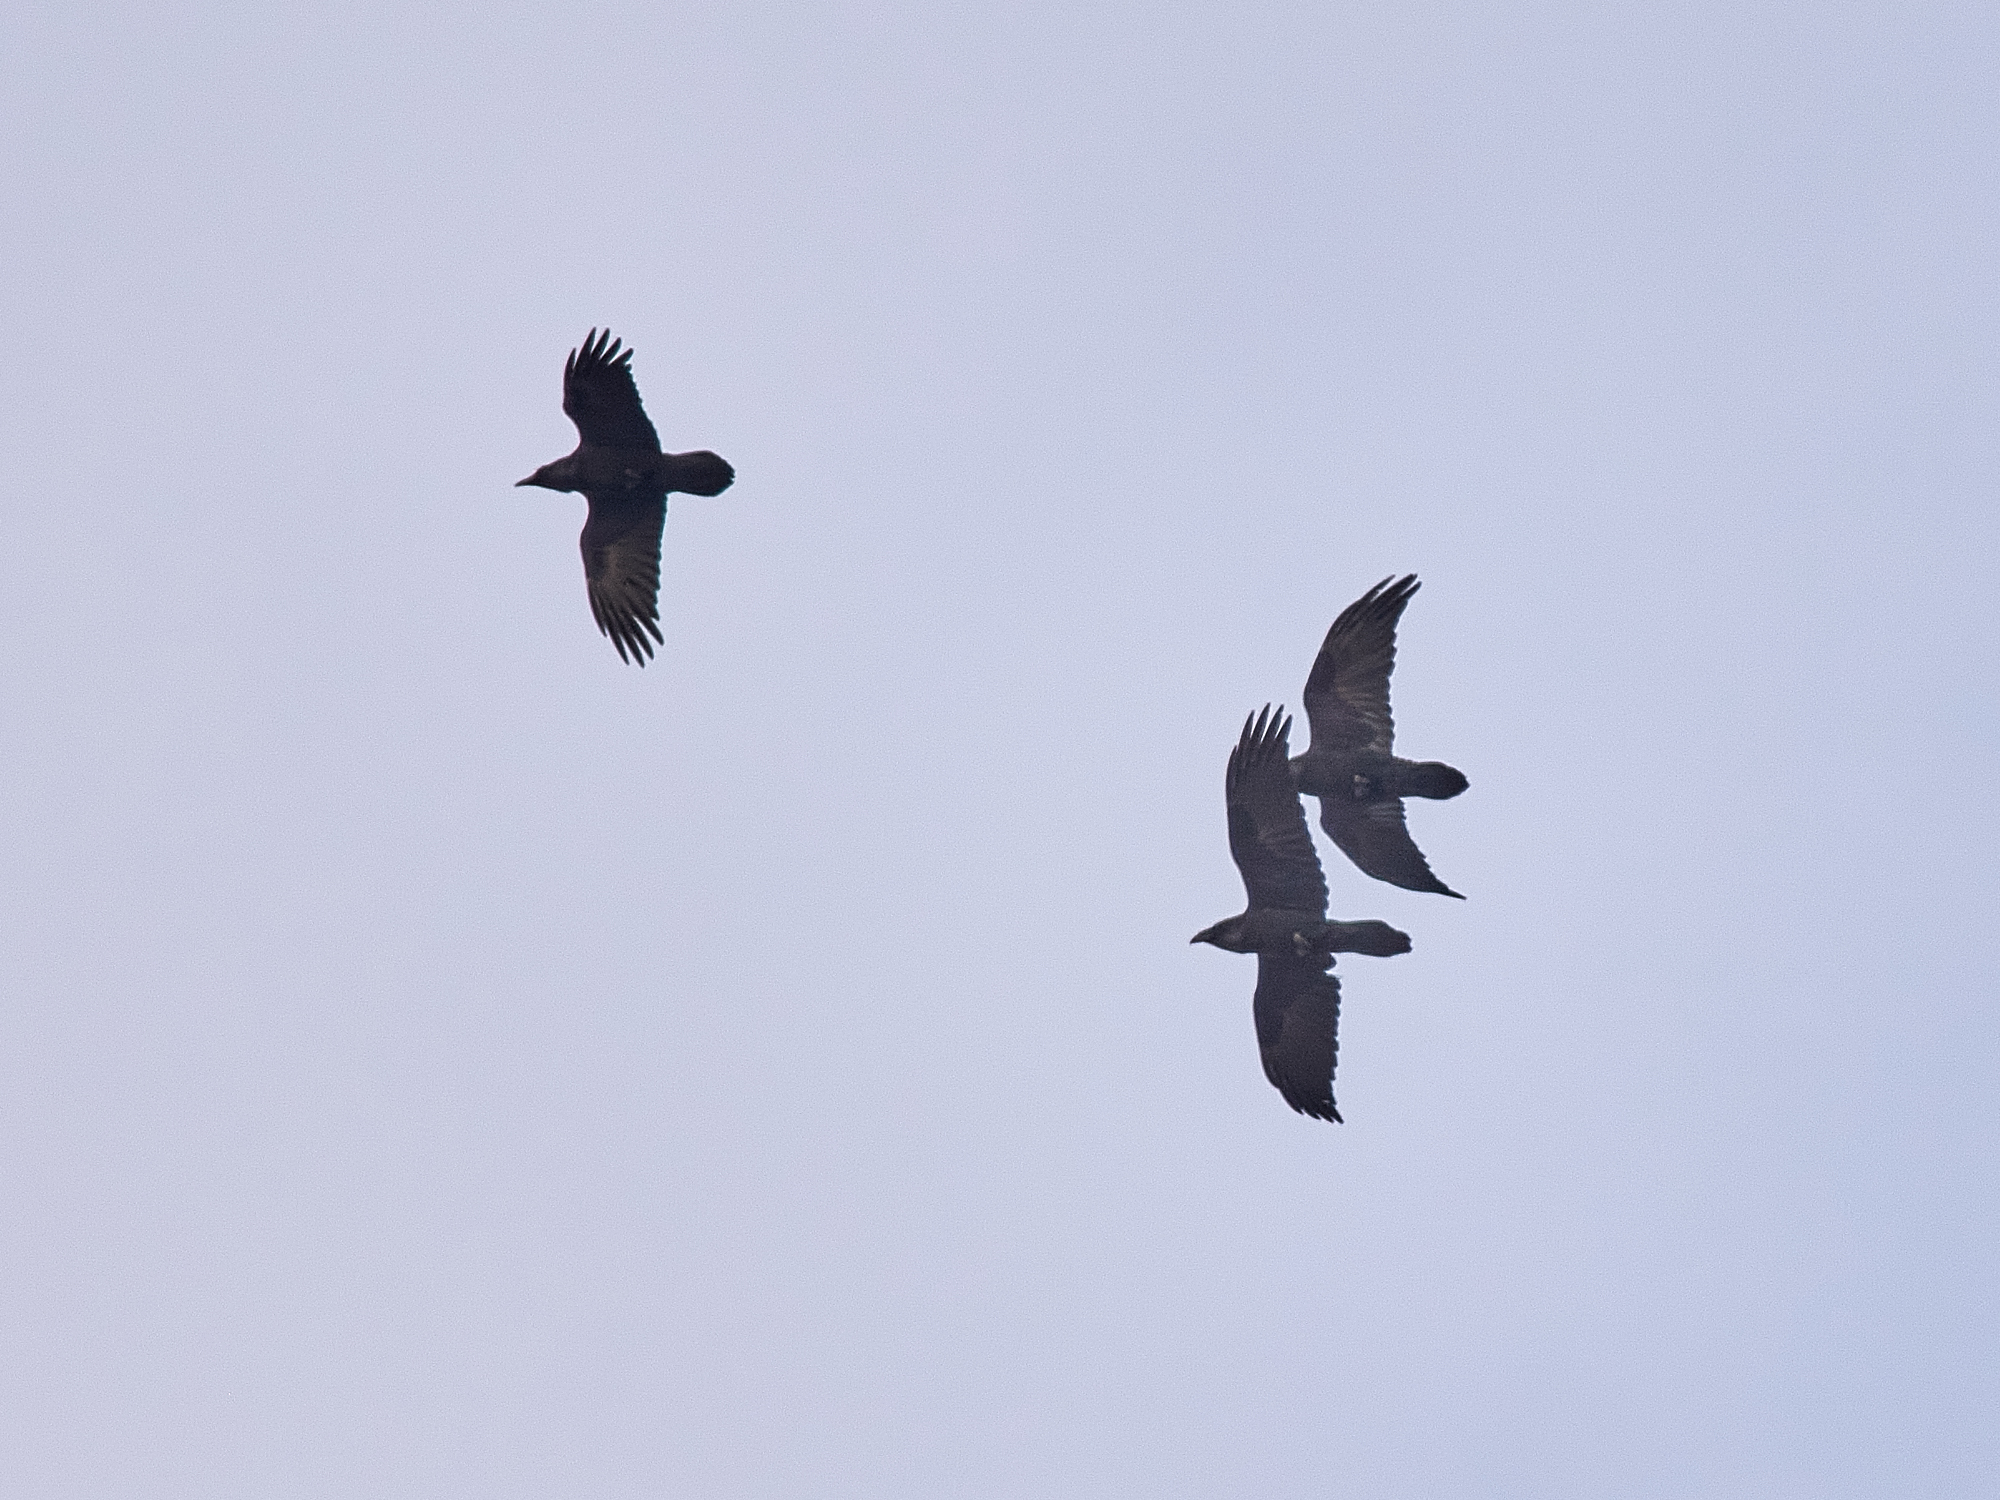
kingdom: Animalia
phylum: Chordata
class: Aves
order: Passeriformes
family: Corvidae
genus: Corvus
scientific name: Corvus corax
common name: Common raven
